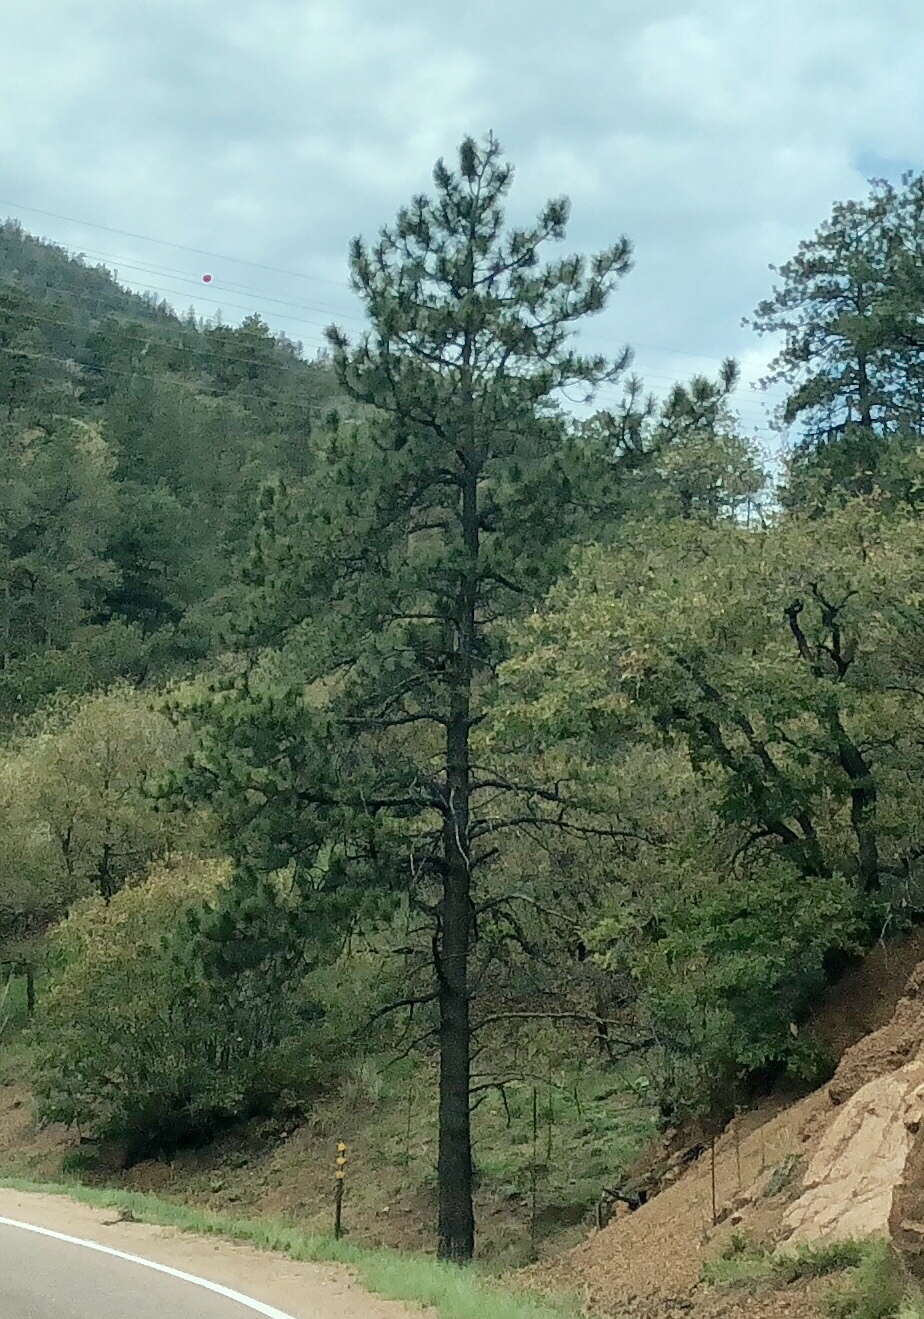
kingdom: Plantae
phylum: Tracheophyta
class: Pinopsida
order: Pinales
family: Pinaceae
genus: Pinus
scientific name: Pinus ponderosa
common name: Western yellow-pine
